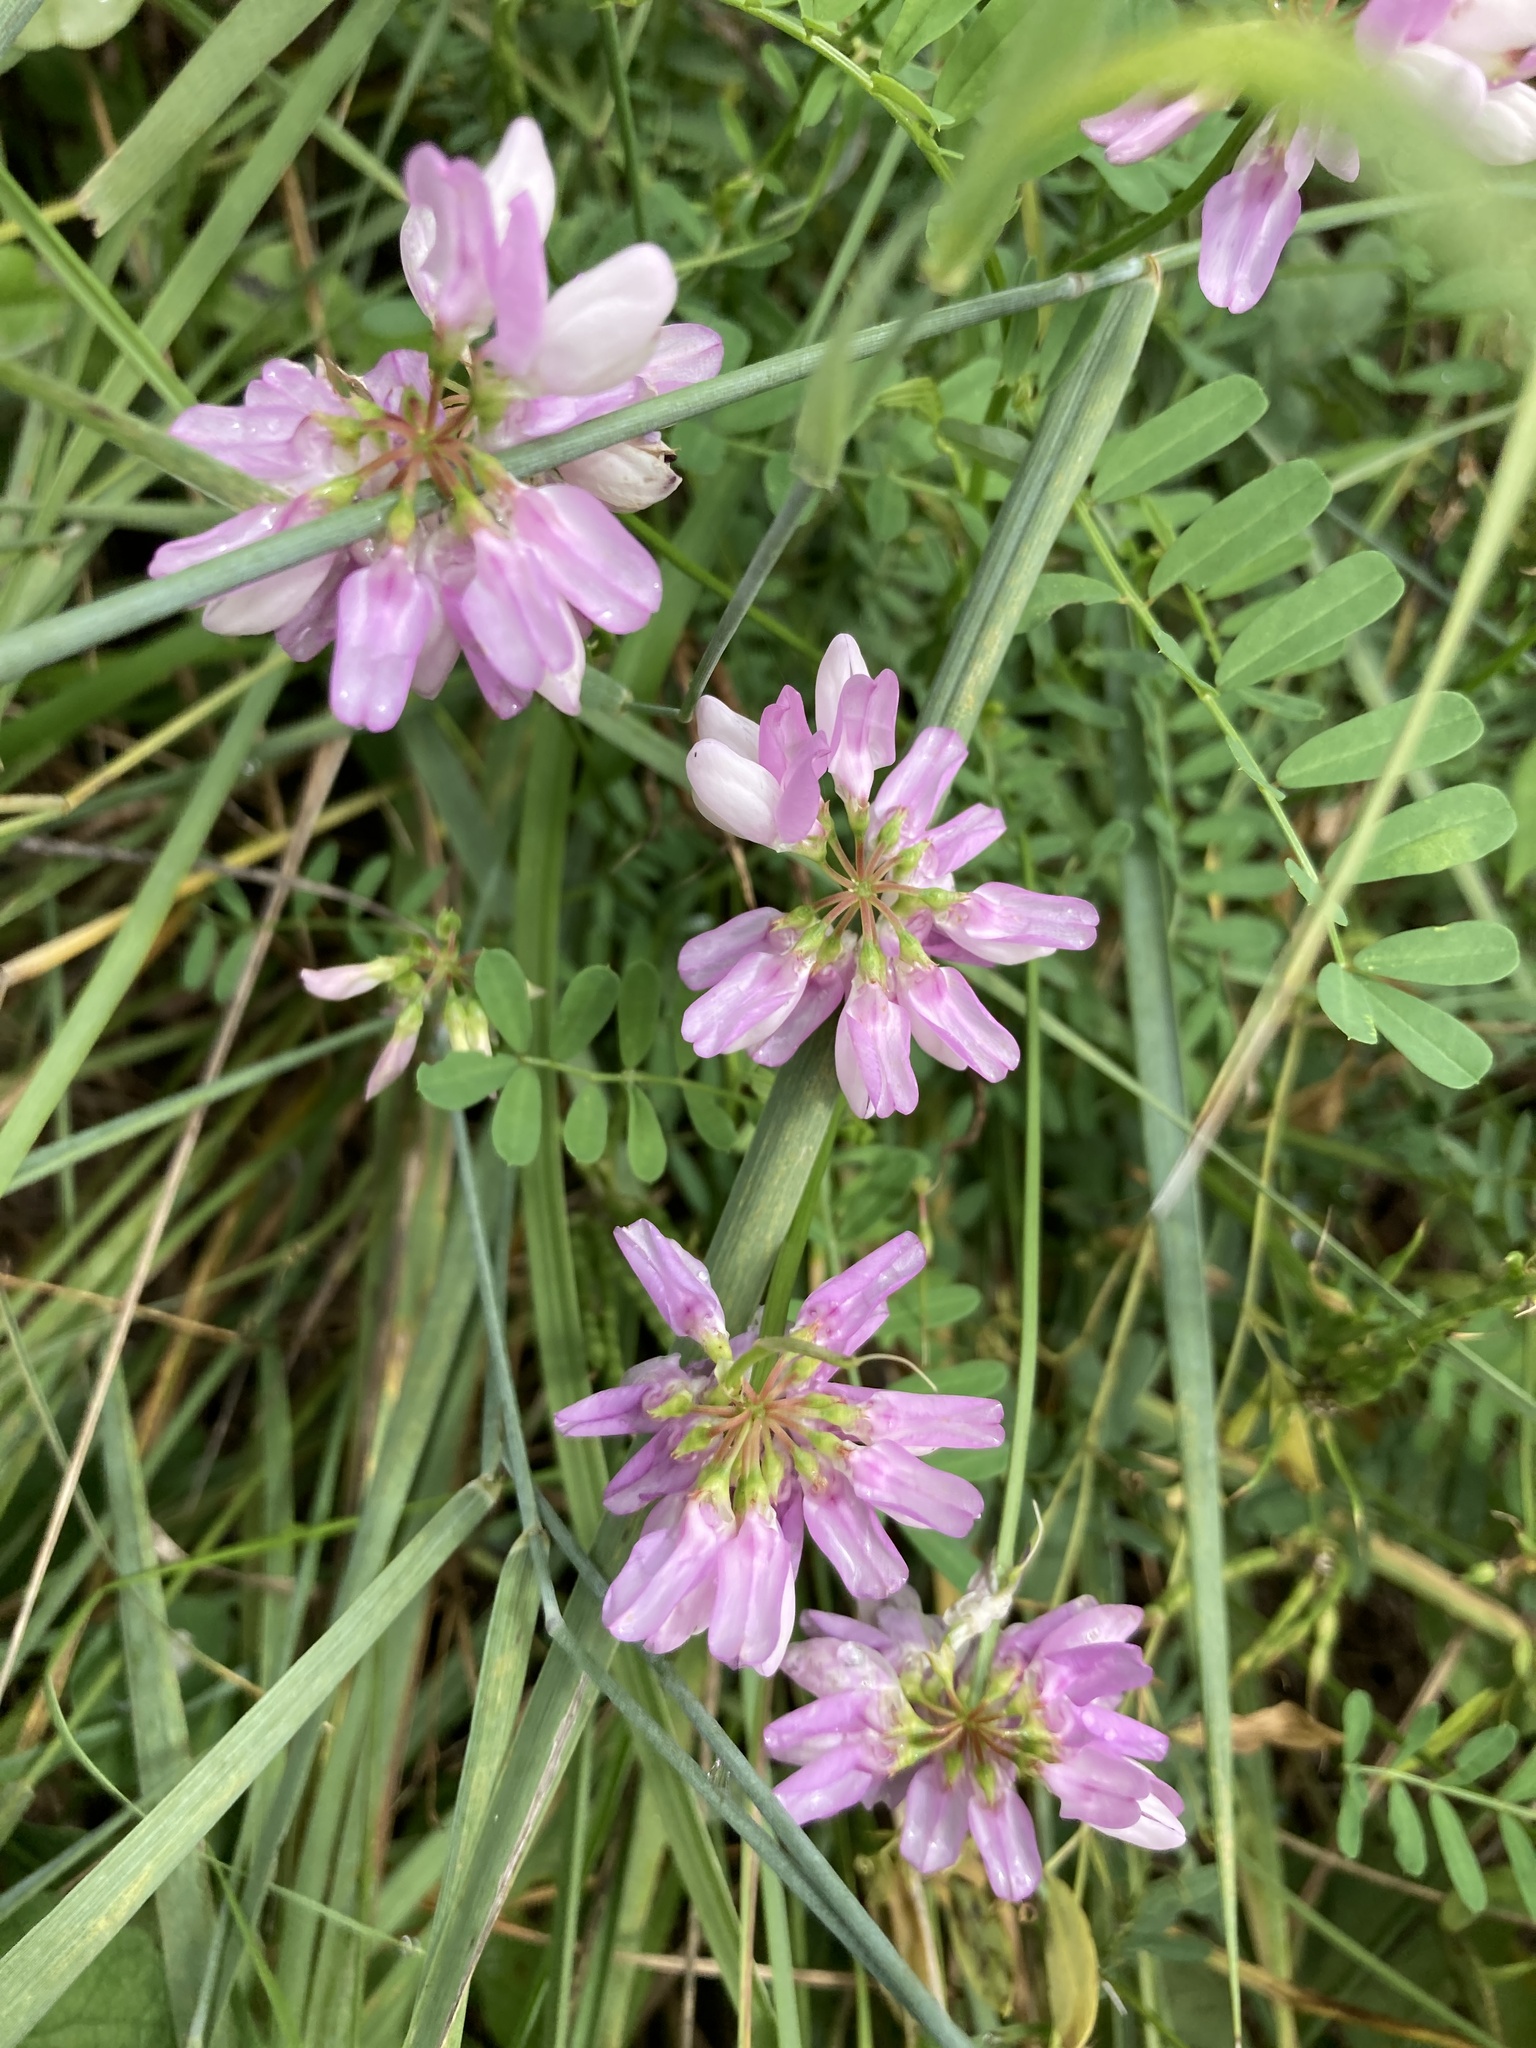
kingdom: Plantae
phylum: Tracheophyta
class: Magnoliopsida
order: Fabales
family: Fabaceae
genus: Coronilla
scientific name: Coronilla varia
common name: Crownvetch
